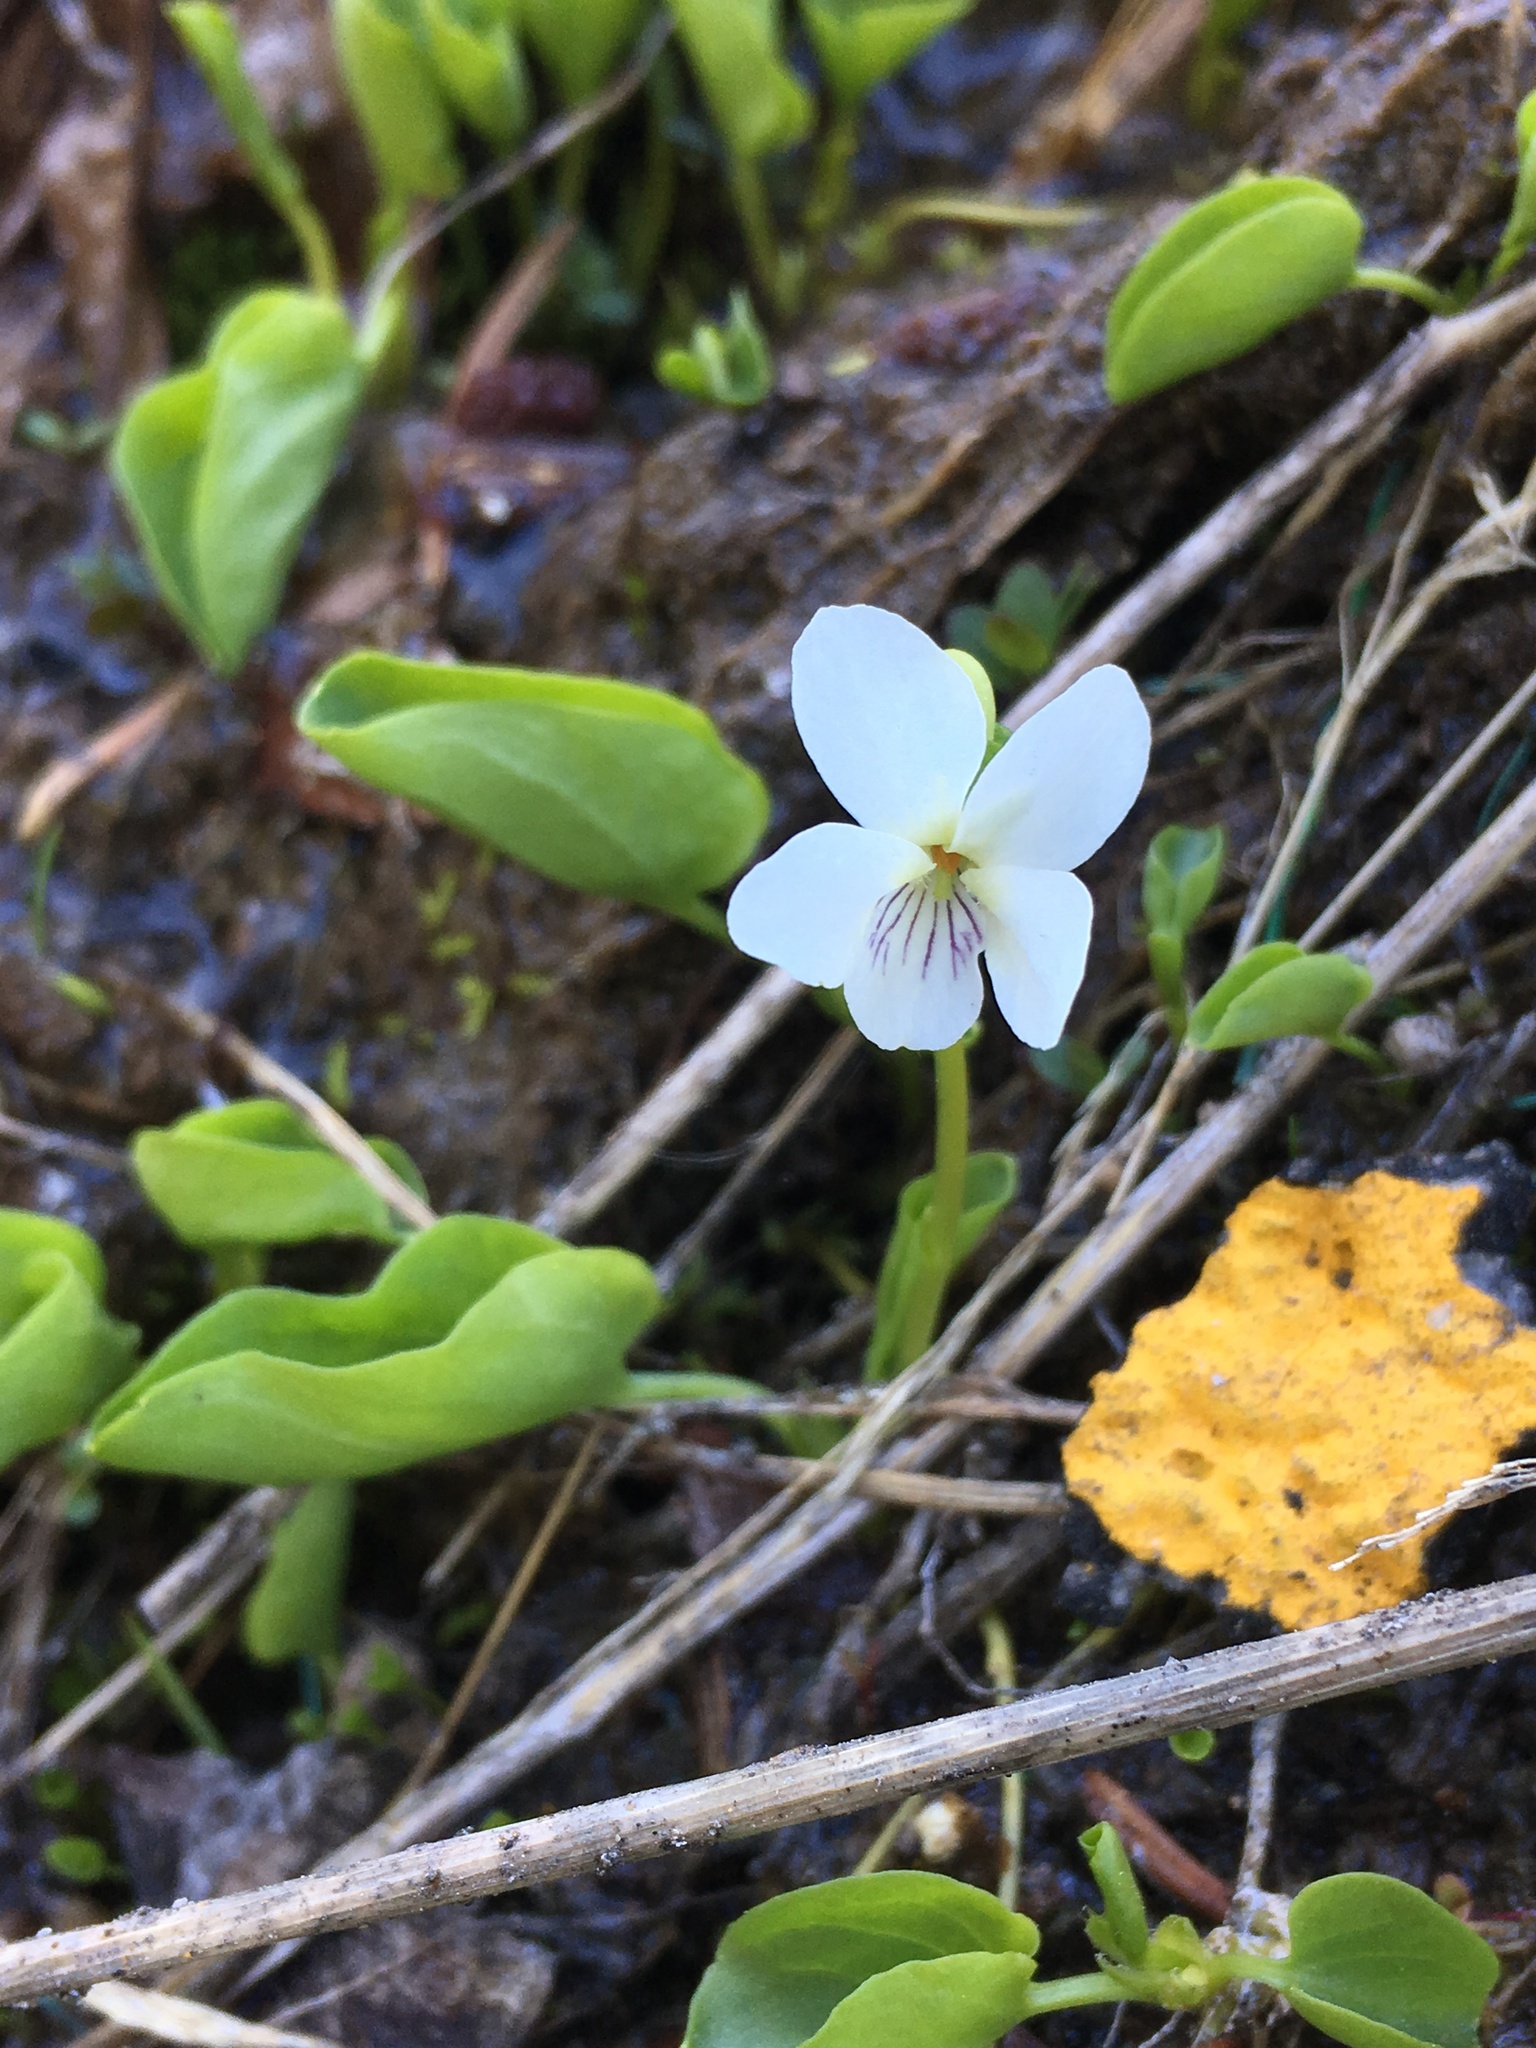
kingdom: Plantae
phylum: Tracheophyta
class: Magnoliopsida
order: Malpighiales
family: Violaceae
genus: Viola
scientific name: Viola macloskeyi
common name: Macloskey's violet
